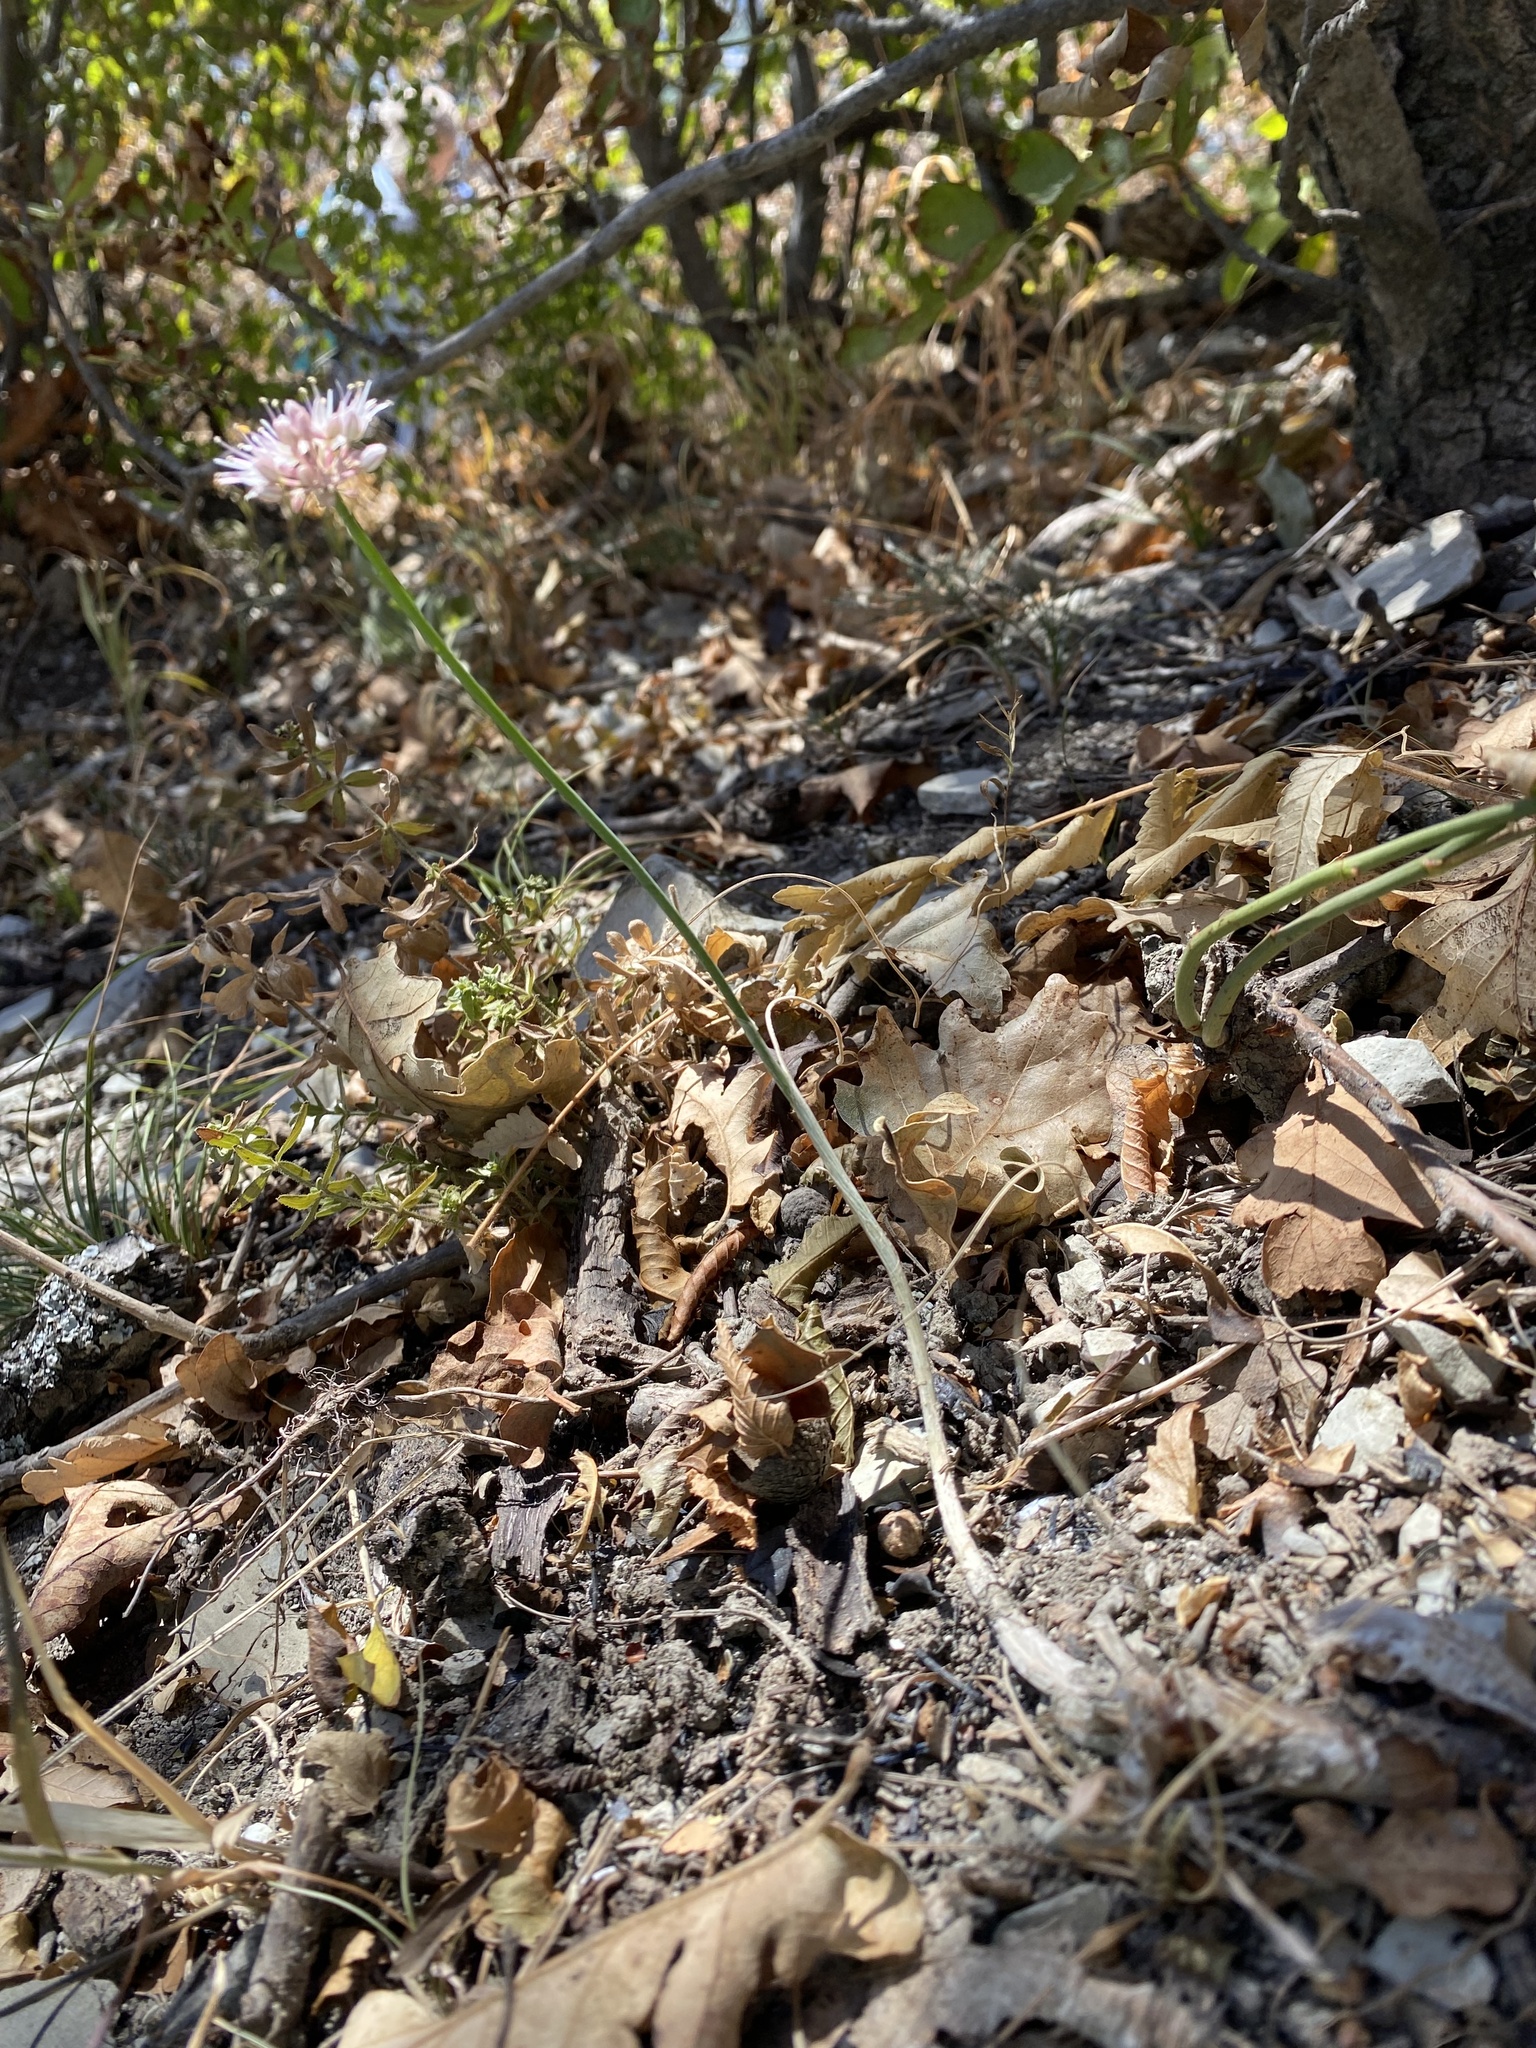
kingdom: Plantae
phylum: Tracheophyta
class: Liliopsida
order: Asparagales
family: Amaryllidaceae
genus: Allium
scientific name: Allium psebaicum
